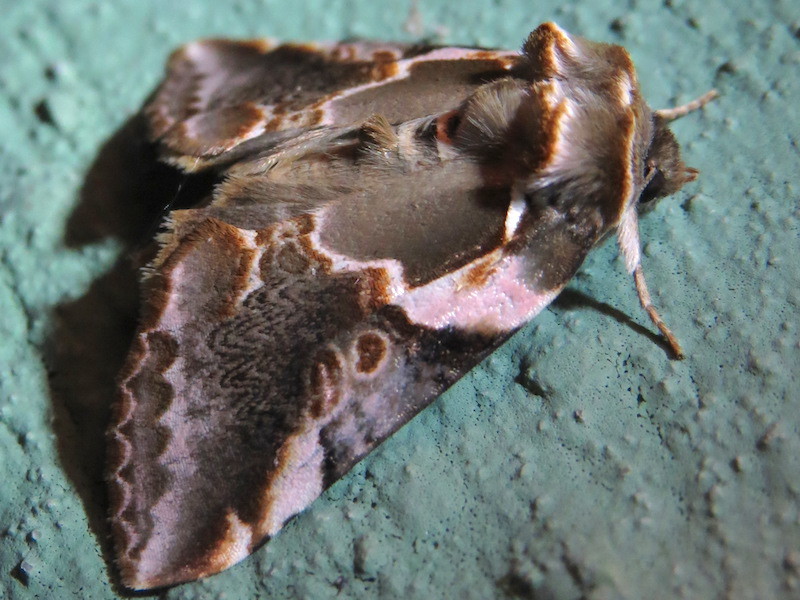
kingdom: Animalia
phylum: Arthropoda
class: Insecta
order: Lepidoptera
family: Drepanidae
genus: Habrosyne
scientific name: Habrosyne gloriosa
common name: Glorious habrosyne moth
